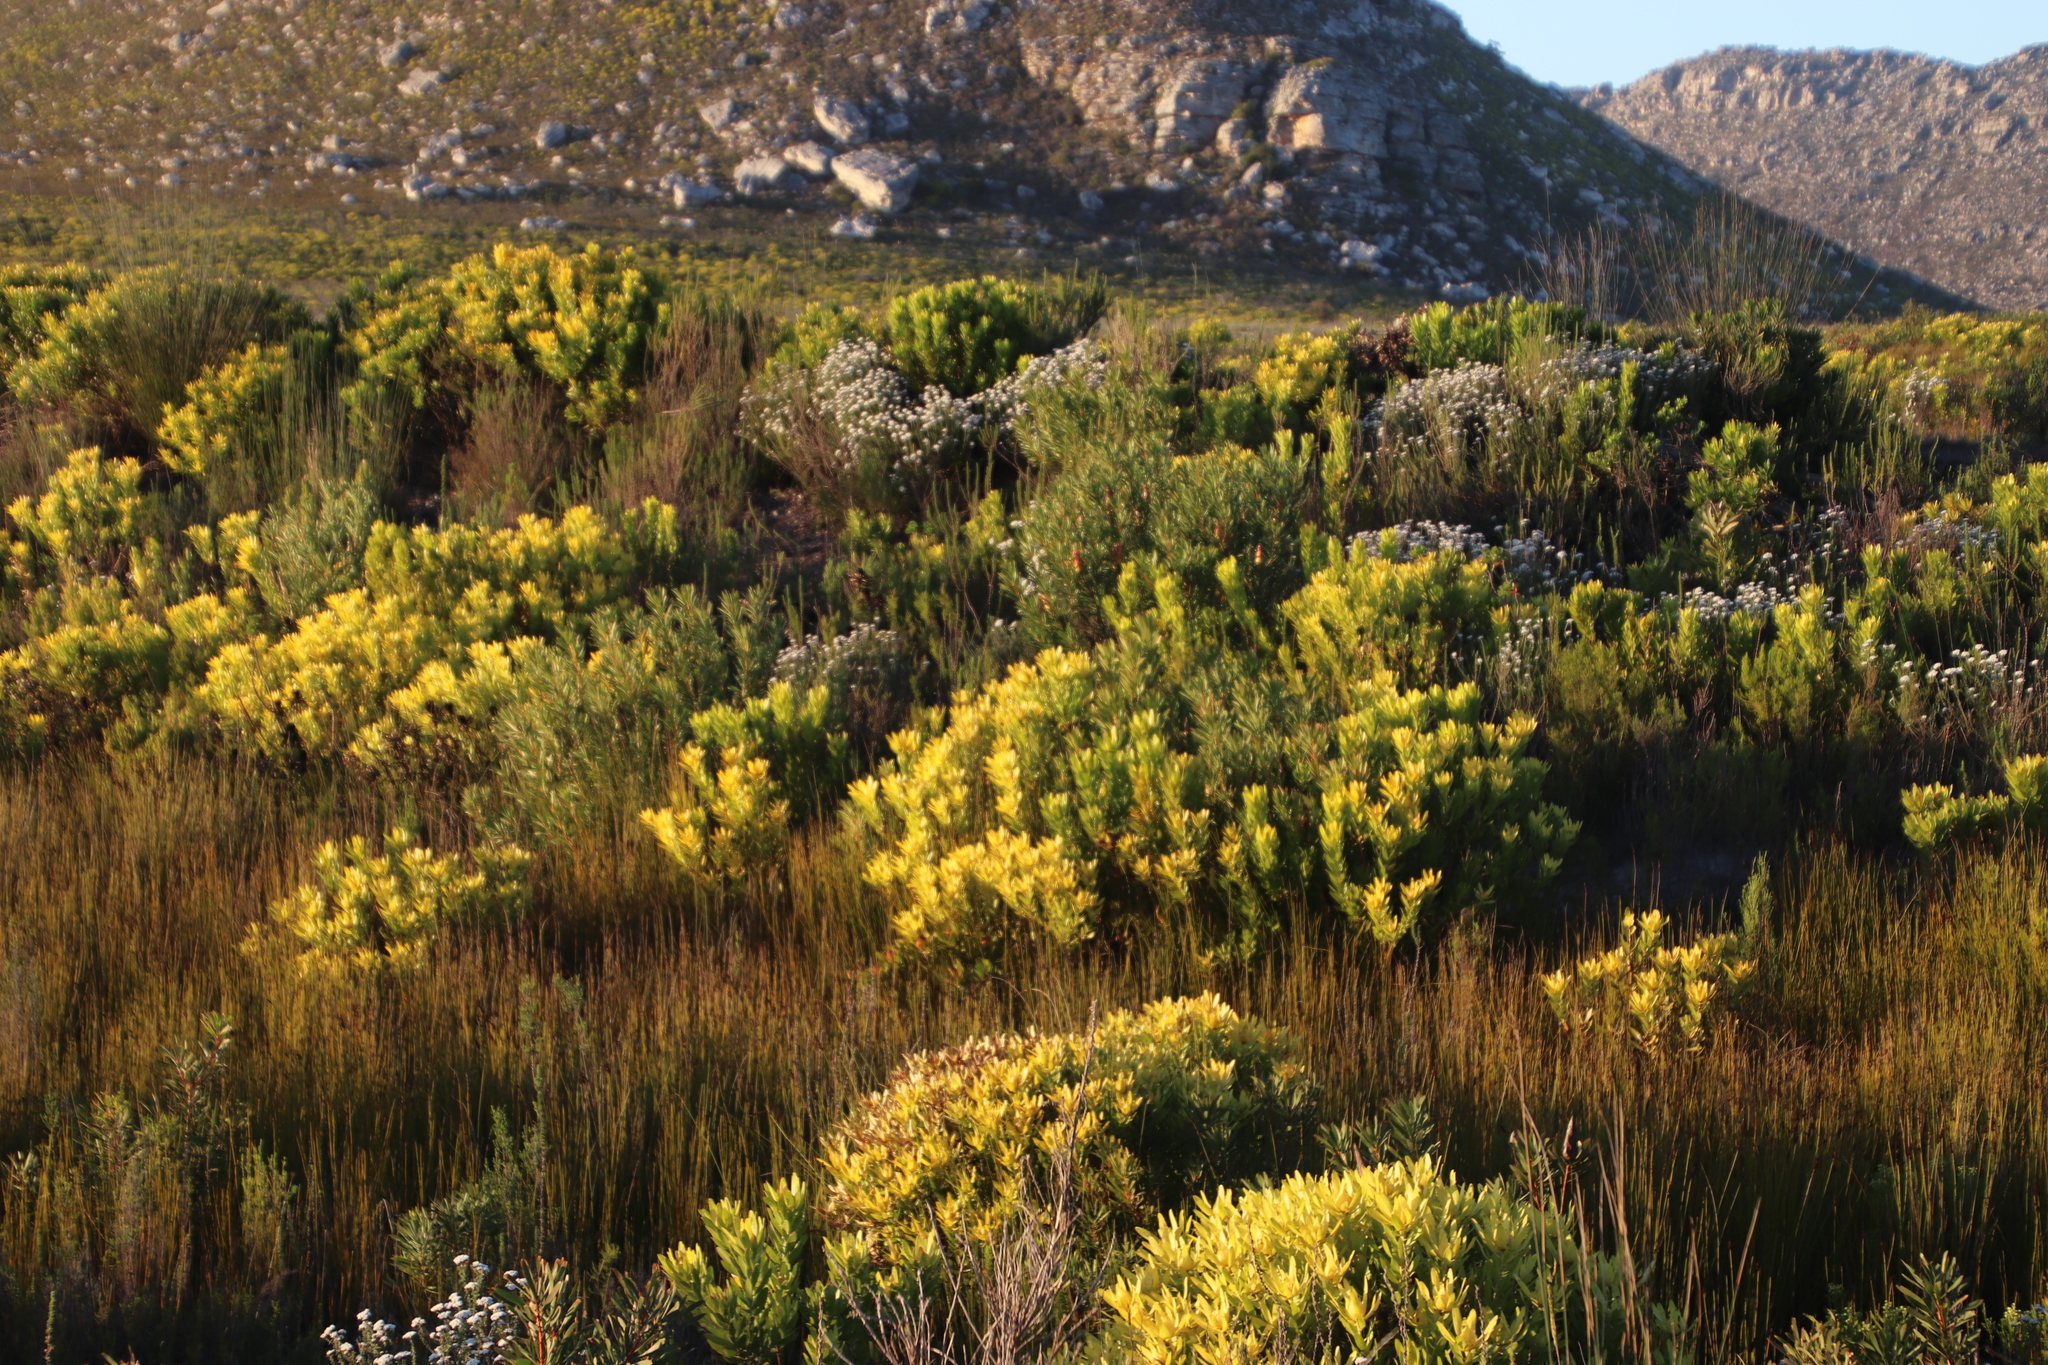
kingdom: Plantae
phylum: Tracheophyta
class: Magnoliopsida
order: Proteales
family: Proteaceae
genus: Leucadendron
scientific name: Leucadendron laureolum
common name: Golden sunshinebush
